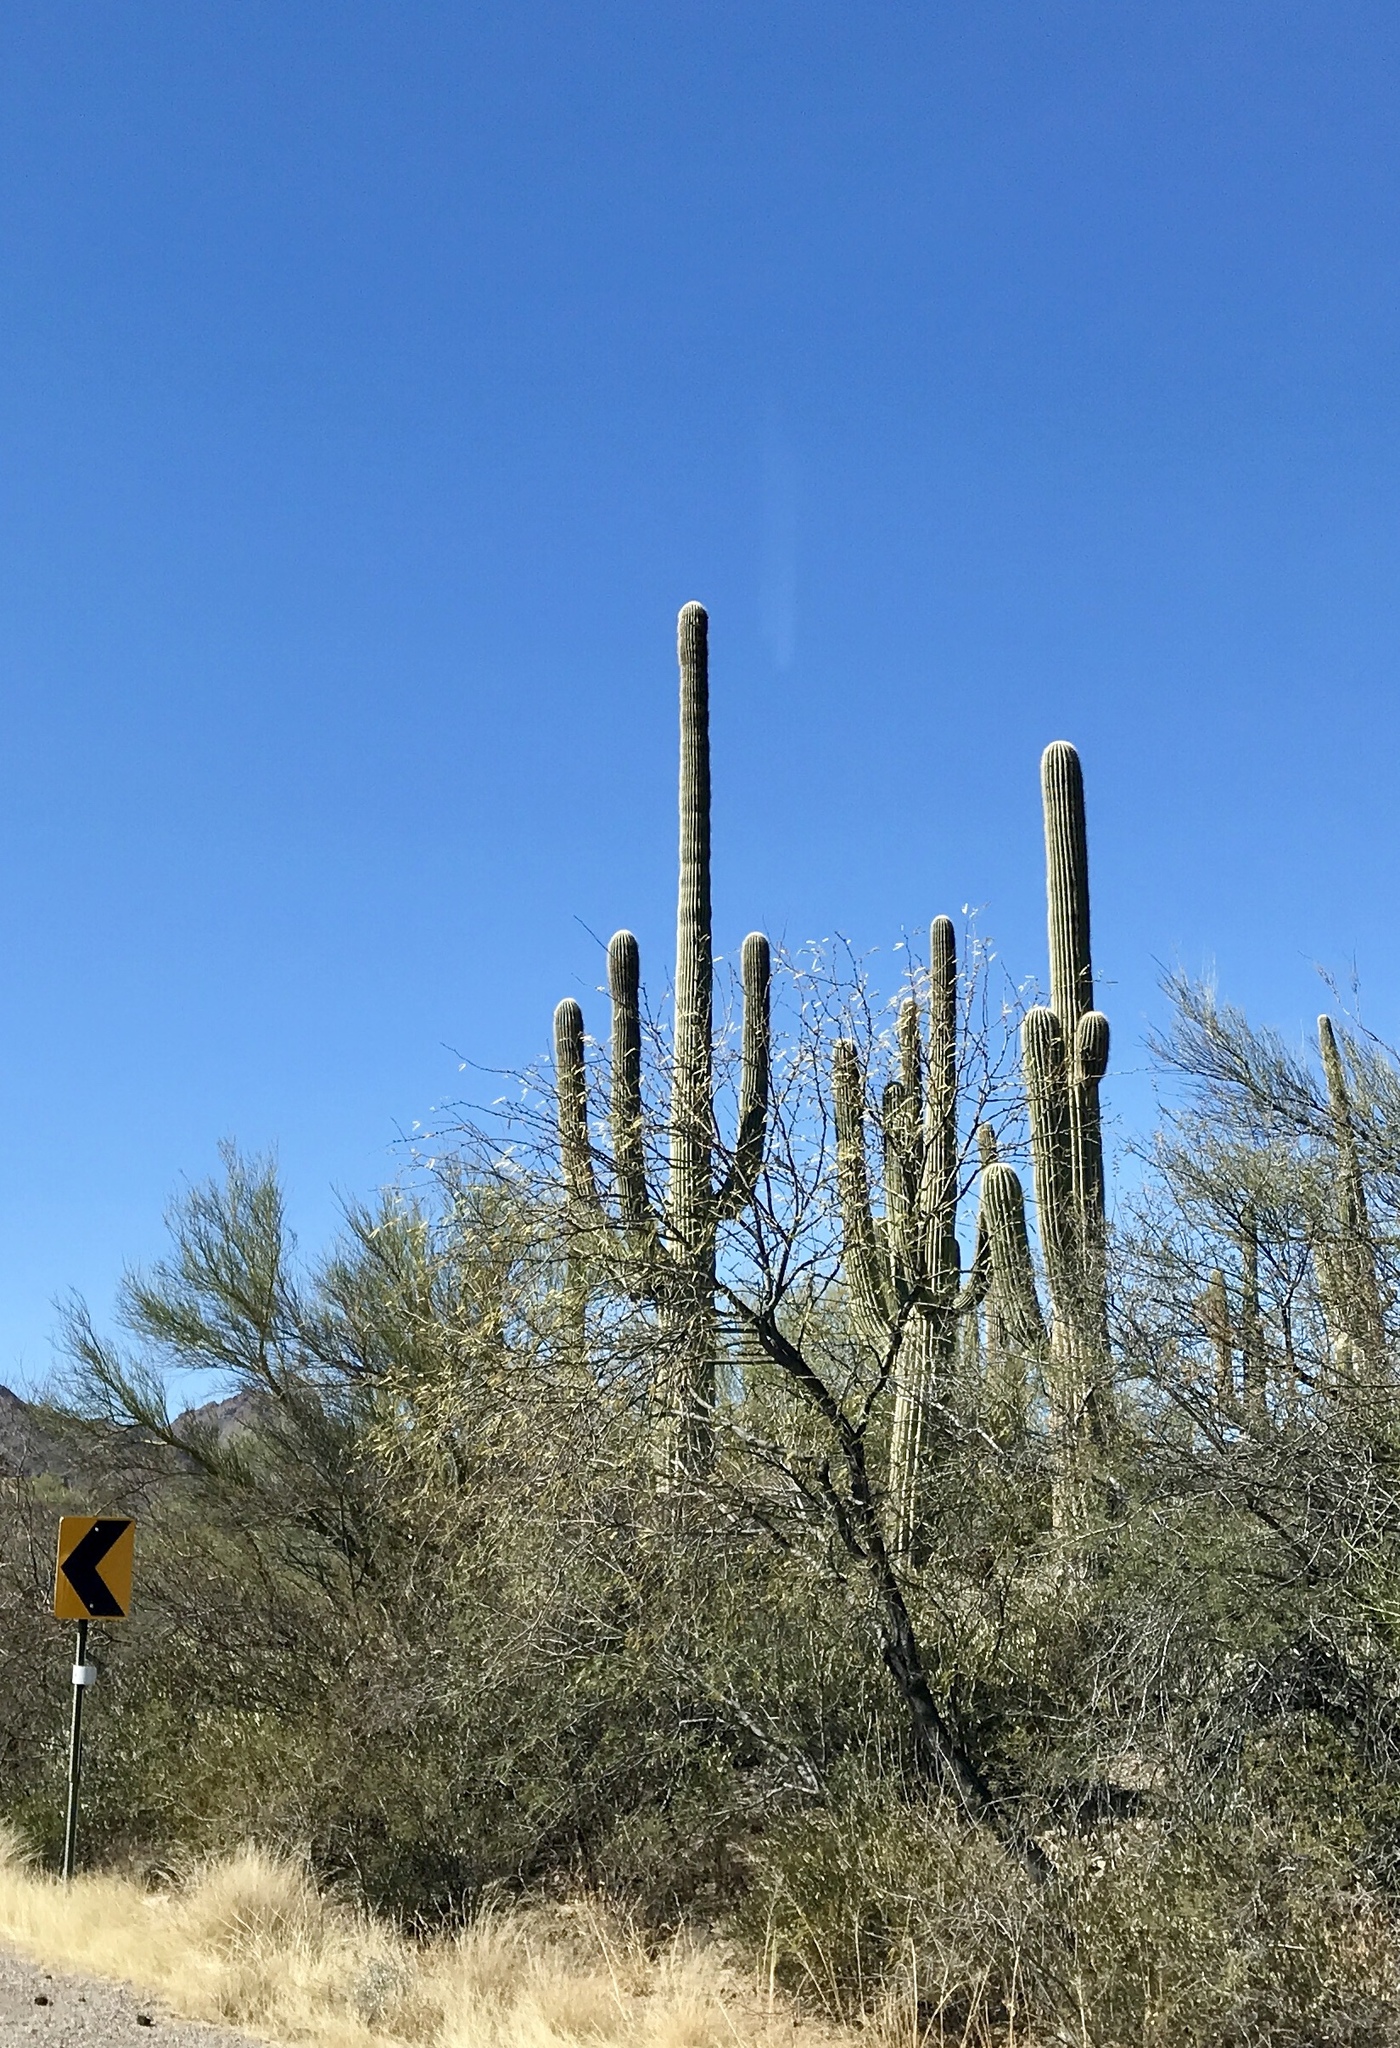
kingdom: Plantae
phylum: Tracheophyta
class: Magnoliopsida
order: Caryophyllales
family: Cactaceae
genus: Carnegiea
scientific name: Carnegiea gigantea
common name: Saguaro
